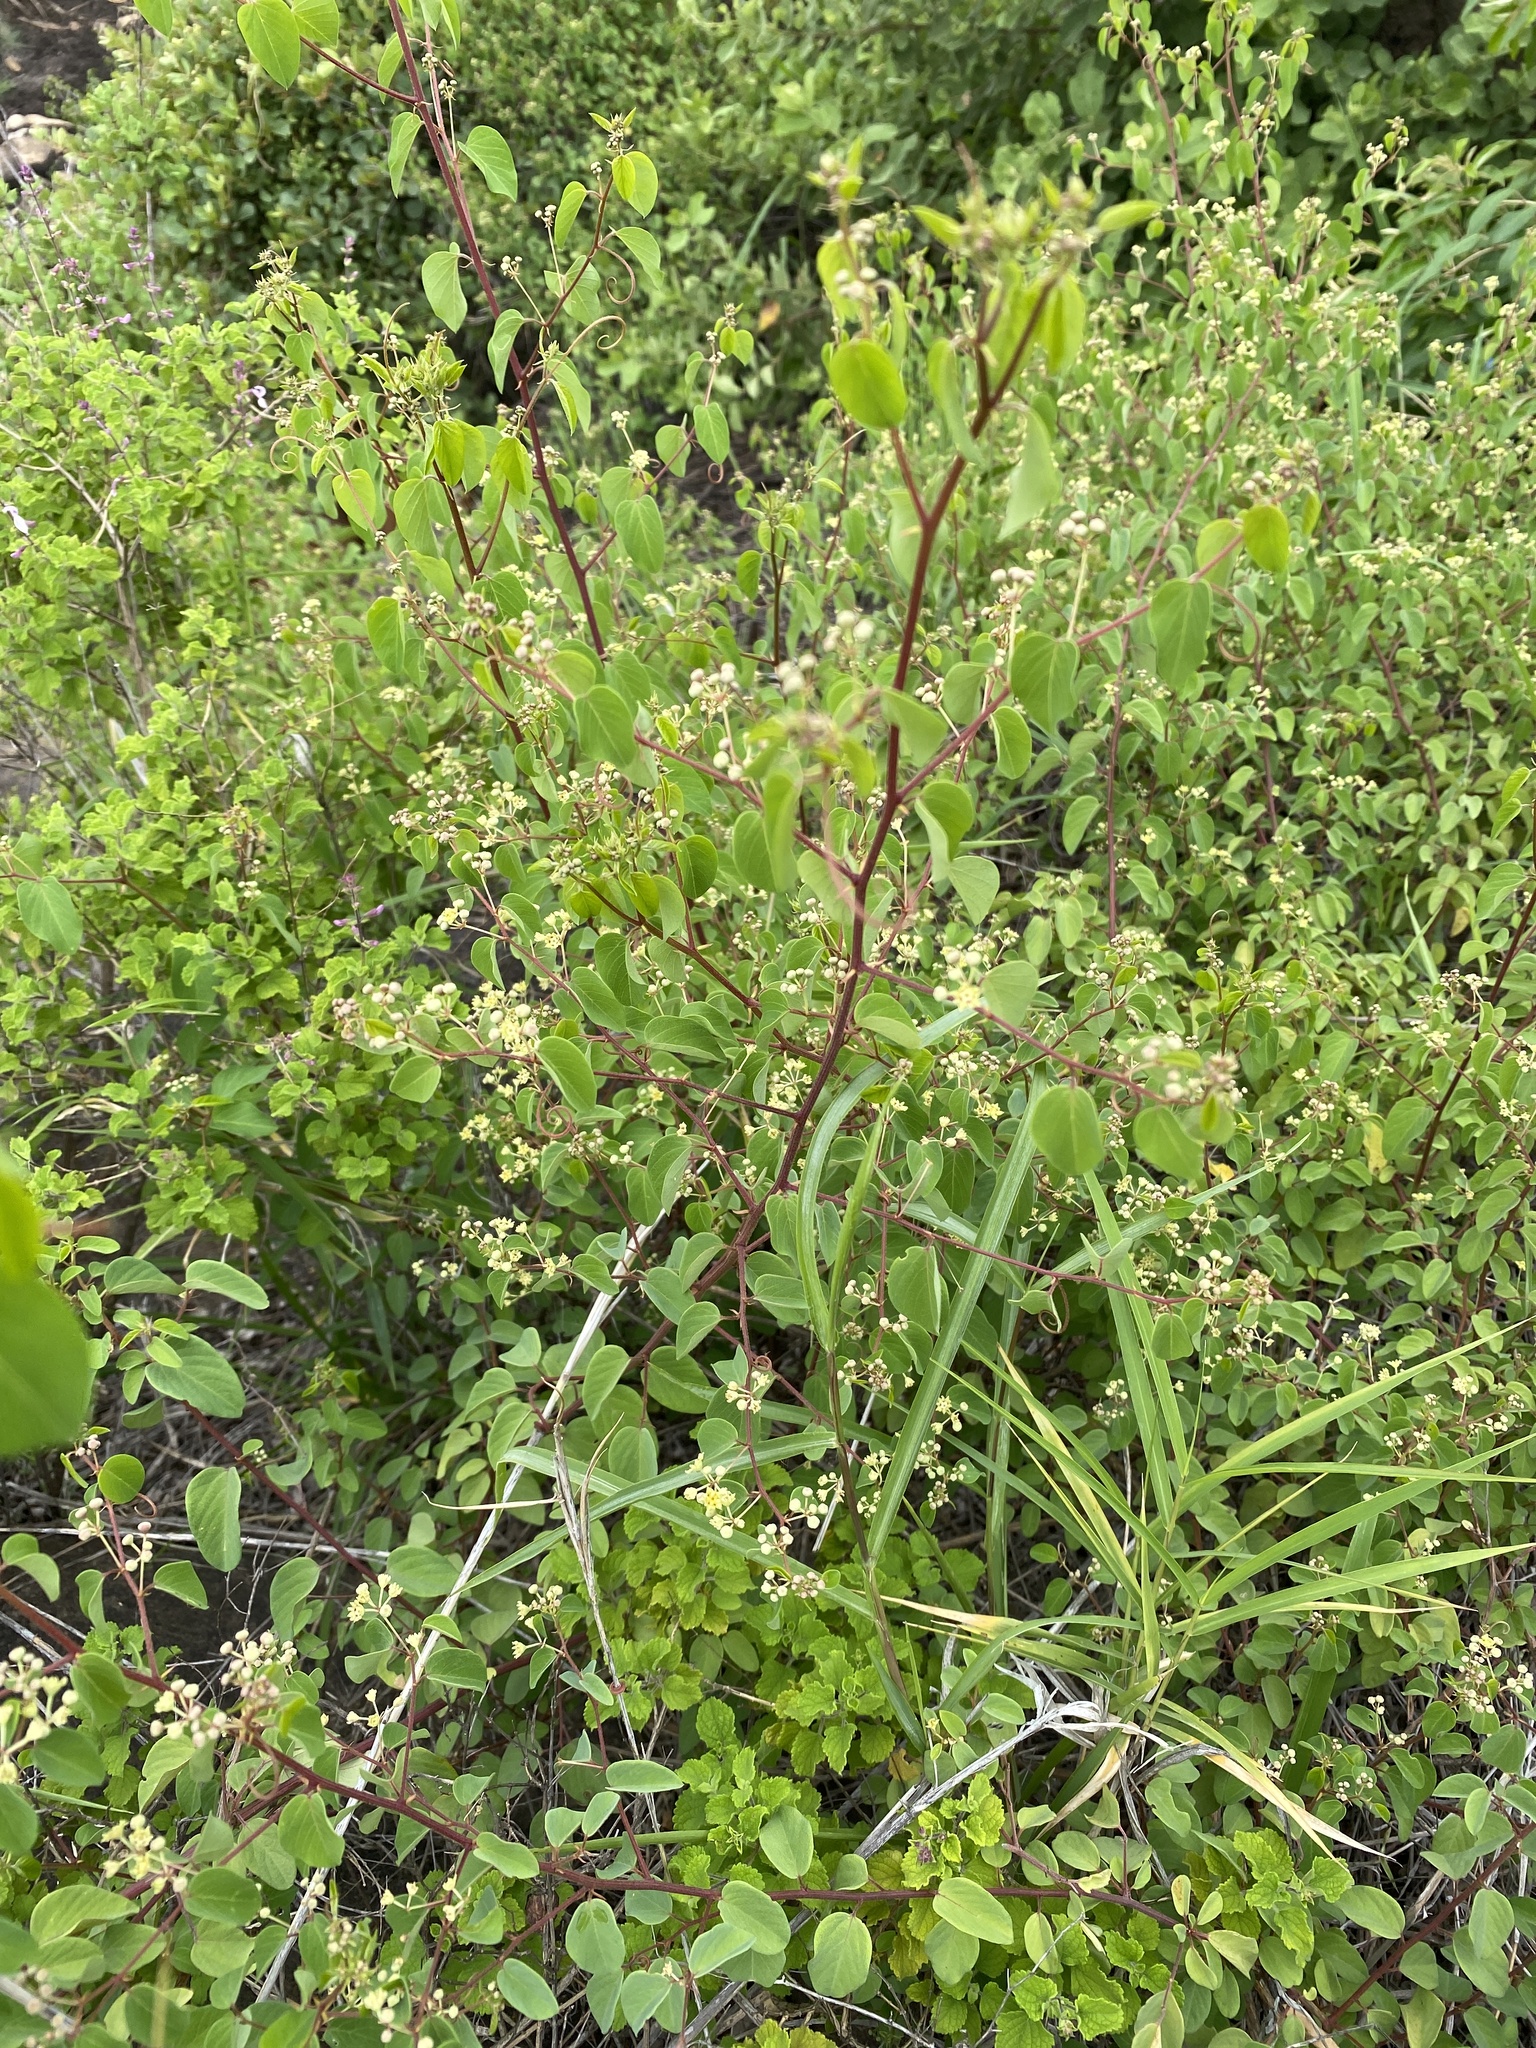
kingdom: Plantae
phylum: Tracheophyta
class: Magnoliopsida
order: Rosales
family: Rhamnaceae
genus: Helinus
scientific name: Helinus integrifolius
